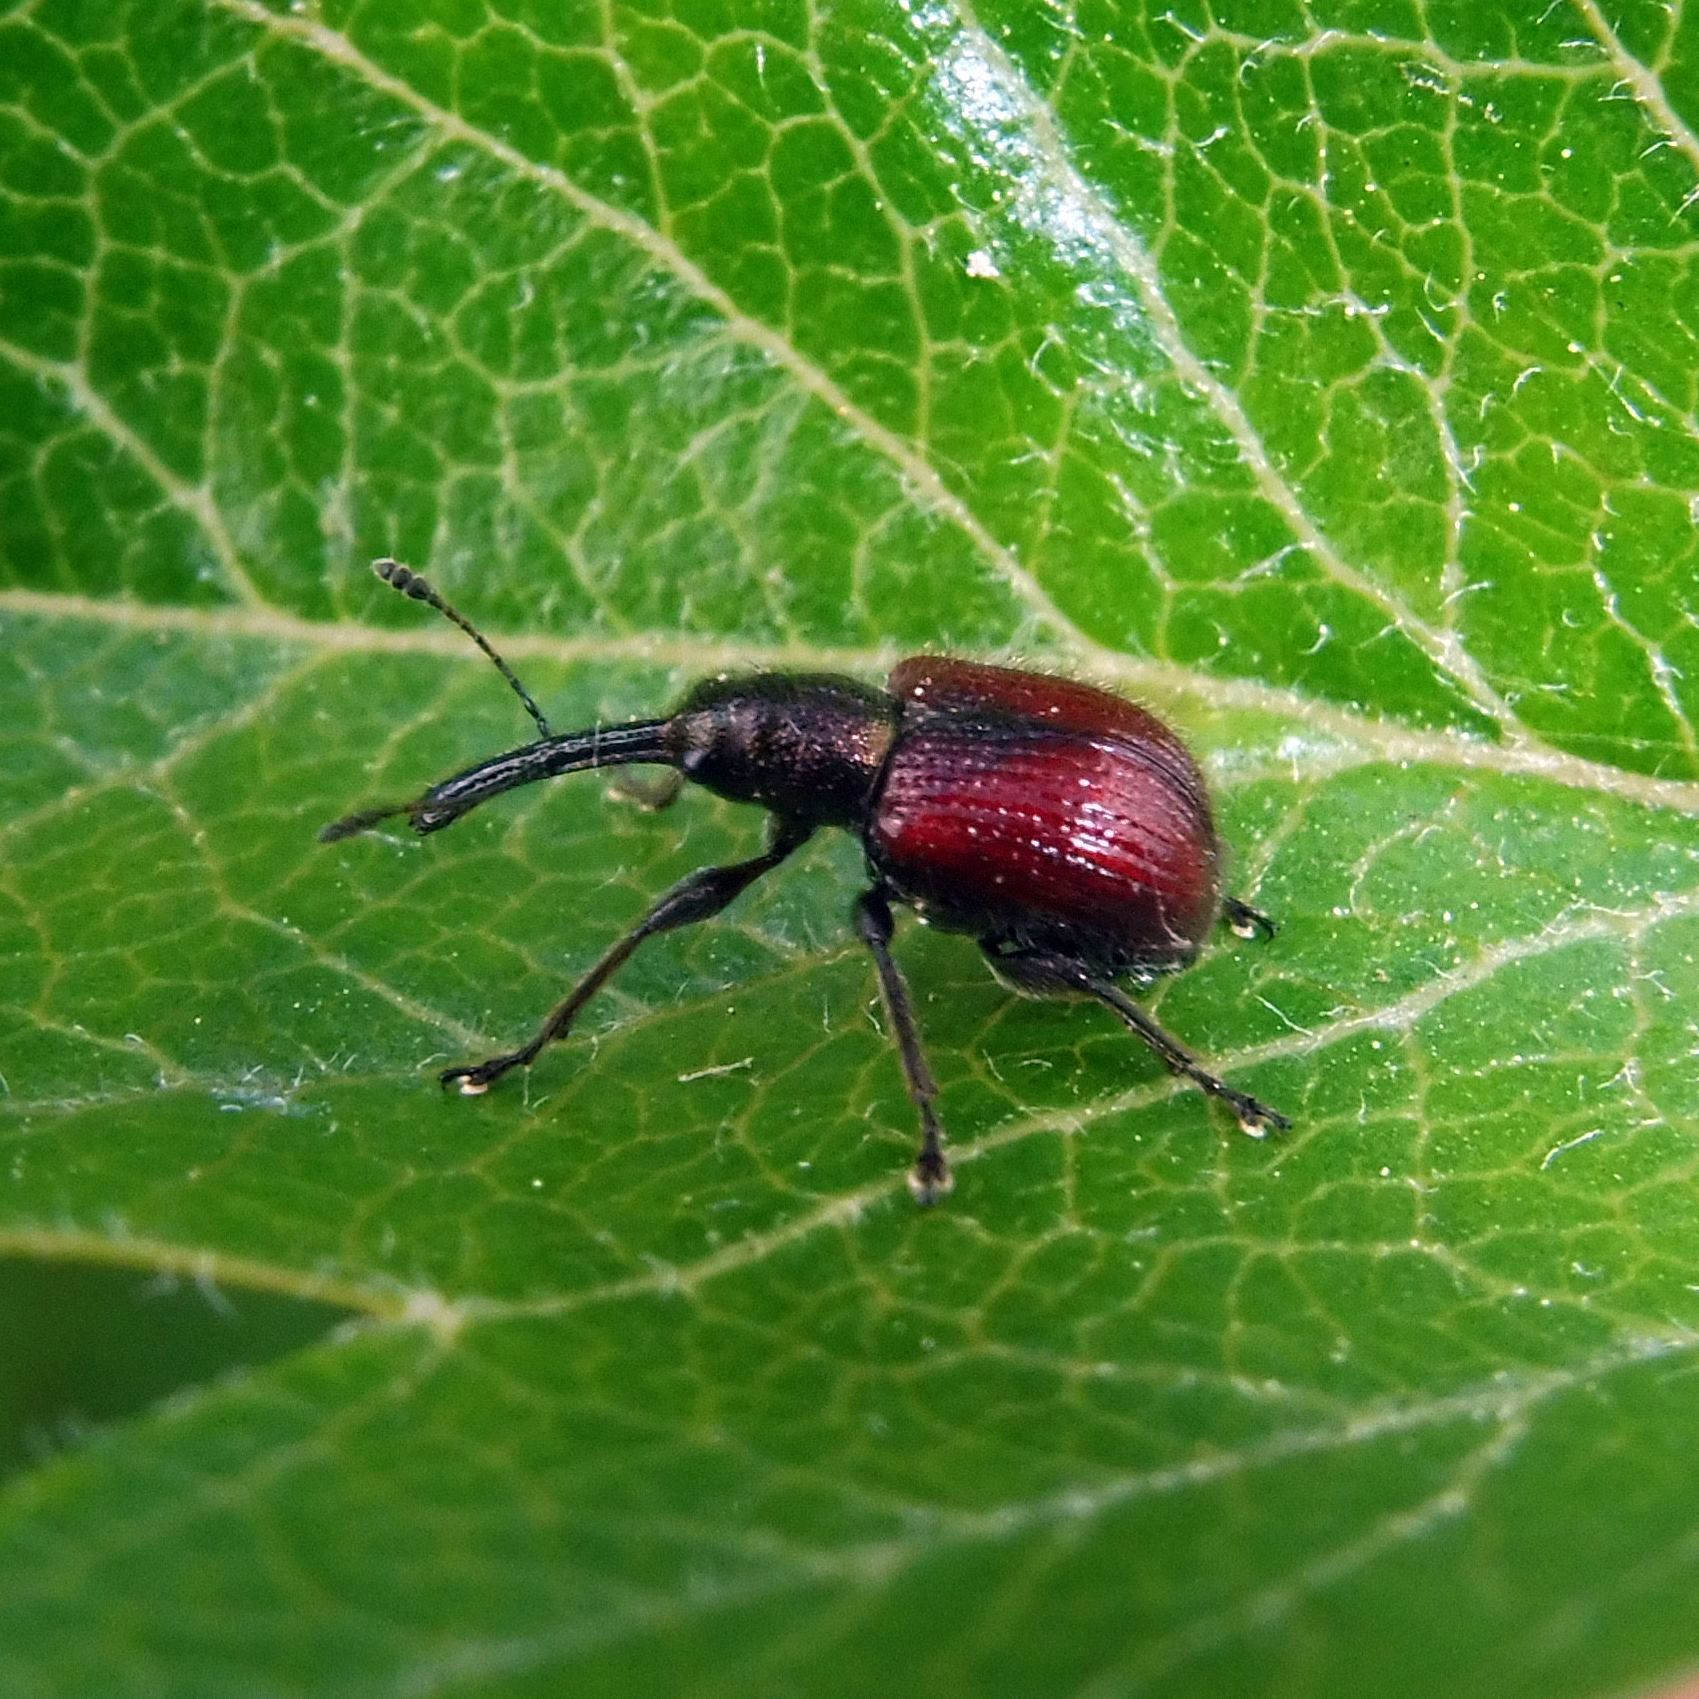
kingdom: Animalia
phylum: Arthropoda
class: Insecta
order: Coleoptera
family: Rhynchitidae
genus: Tatianaerhynchites
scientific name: Tatianaerhynchites aequatus
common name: Apple fruit rhynchites
